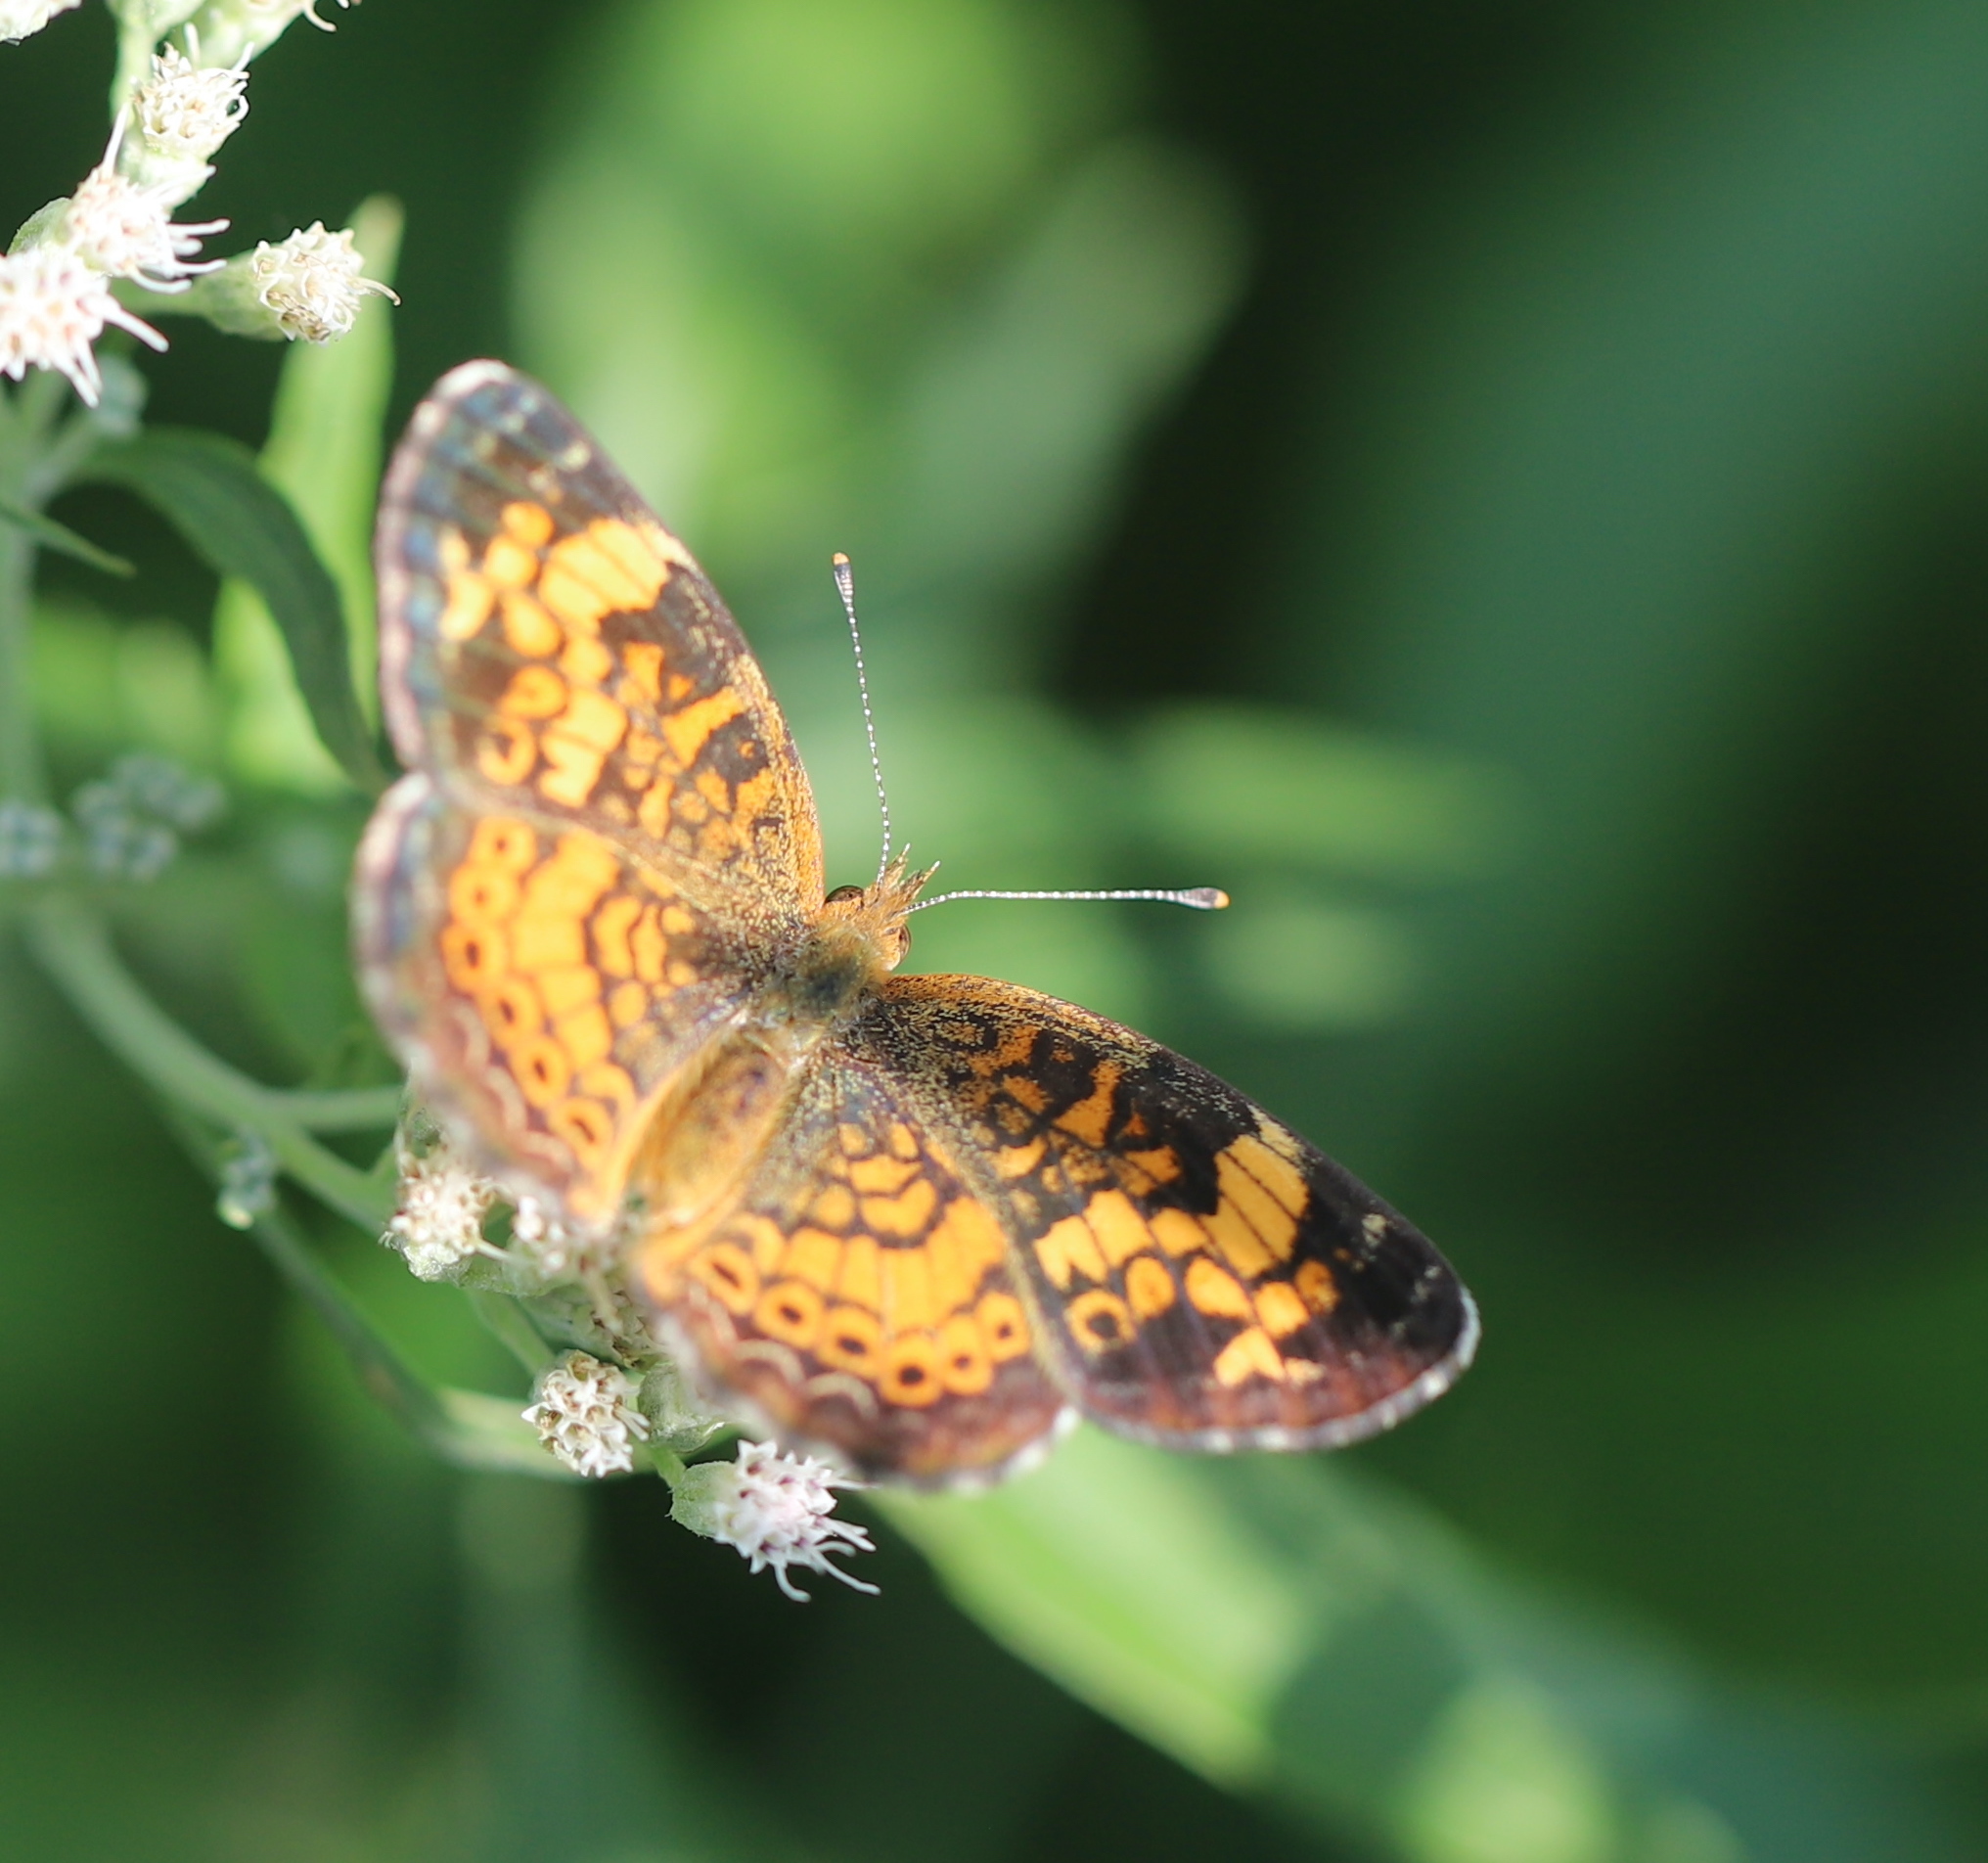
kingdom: Animalia
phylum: Arthropoda
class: Insecta
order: Lepidoptera
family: Nymphalidae
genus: Phyciodes
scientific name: Phyciodes tharos
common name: Pearl crescent
